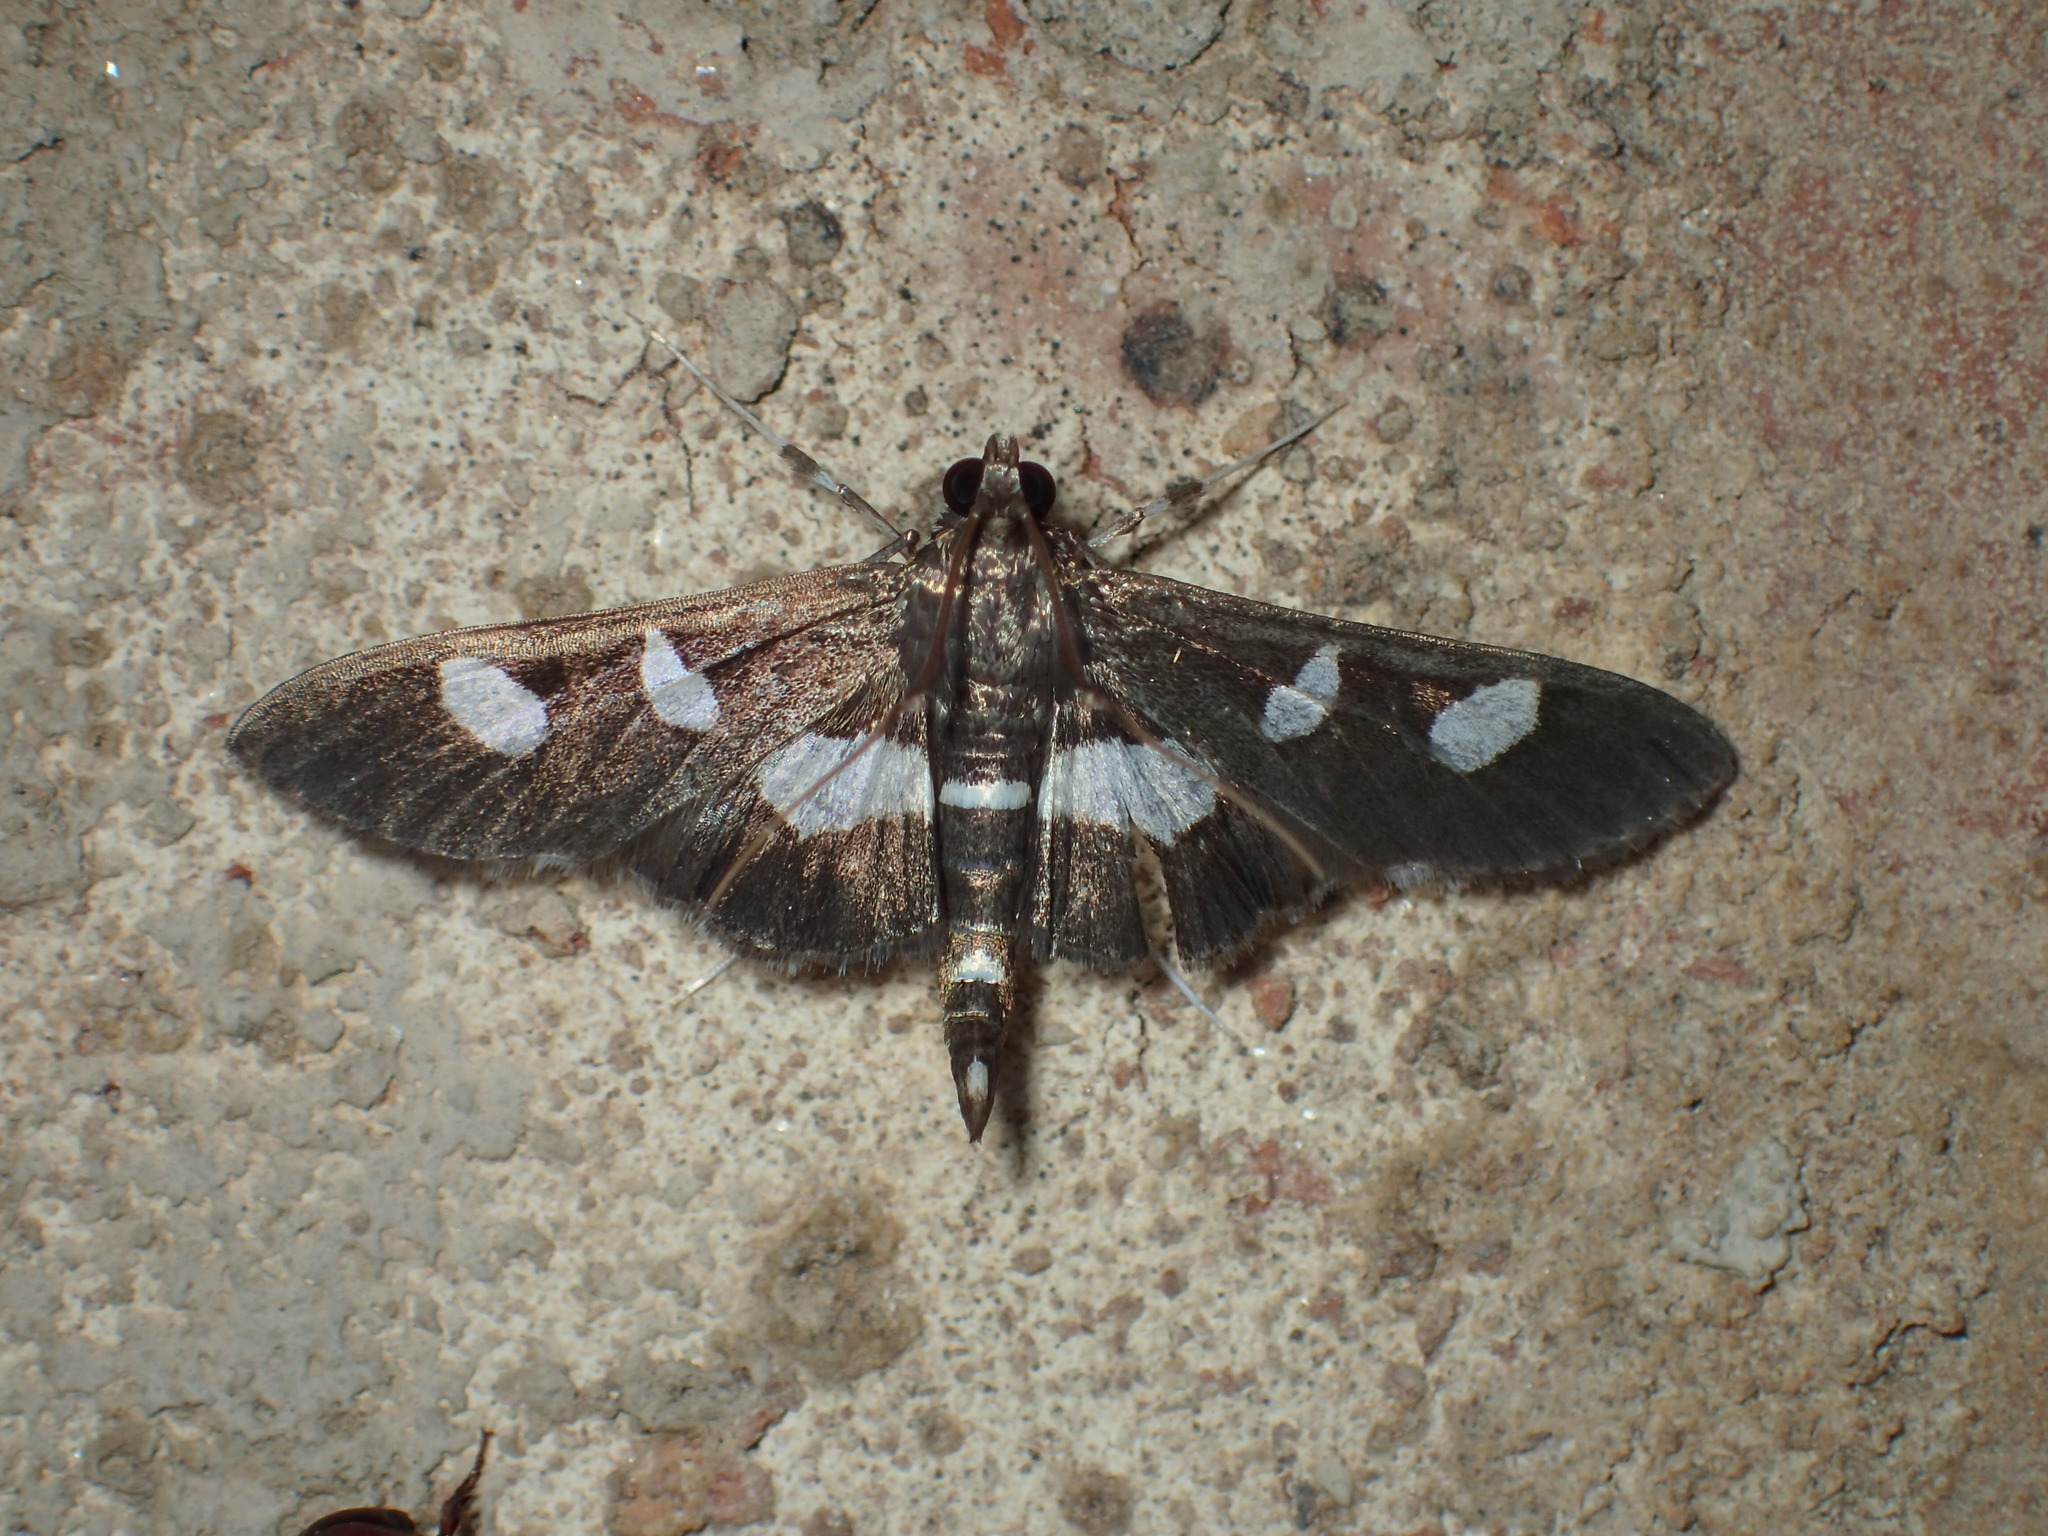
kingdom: Animalia
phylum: Arthropoda
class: Insecta
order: Lepidoptera
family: Crambidae
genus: Desmia
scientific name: Desmia
